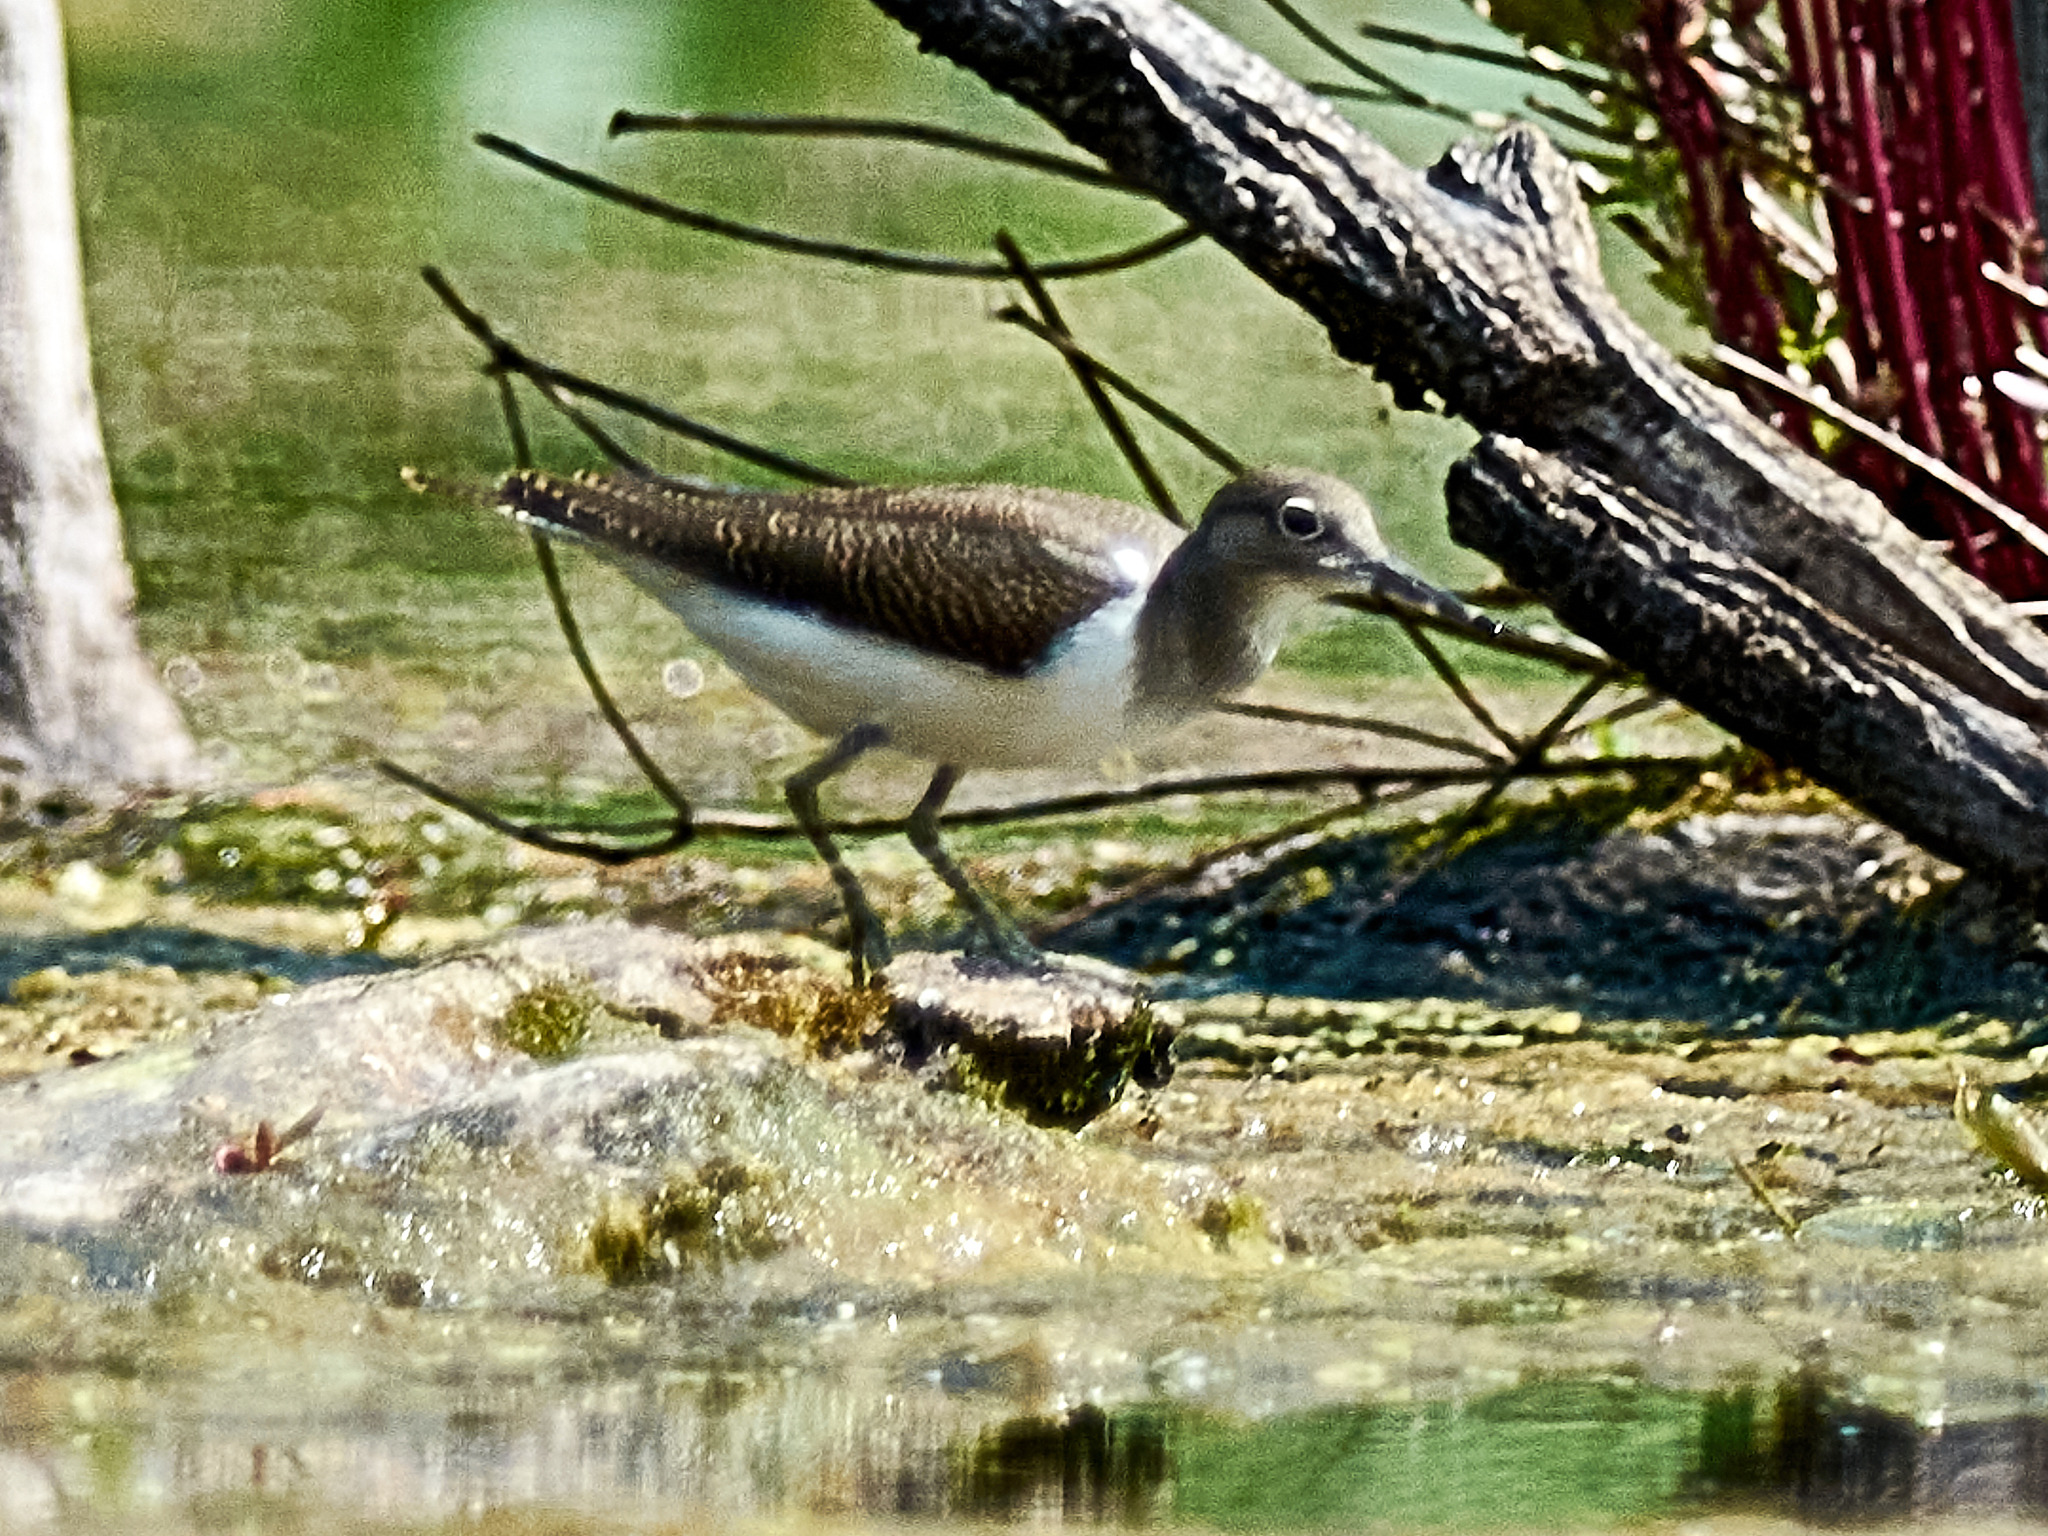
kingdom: Animalia
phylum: Chordata
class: Aves
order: Charadriiformes
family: Scolopacidae
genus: Actitis
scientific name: Actitis hypoleucos
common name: Common sandpiper
